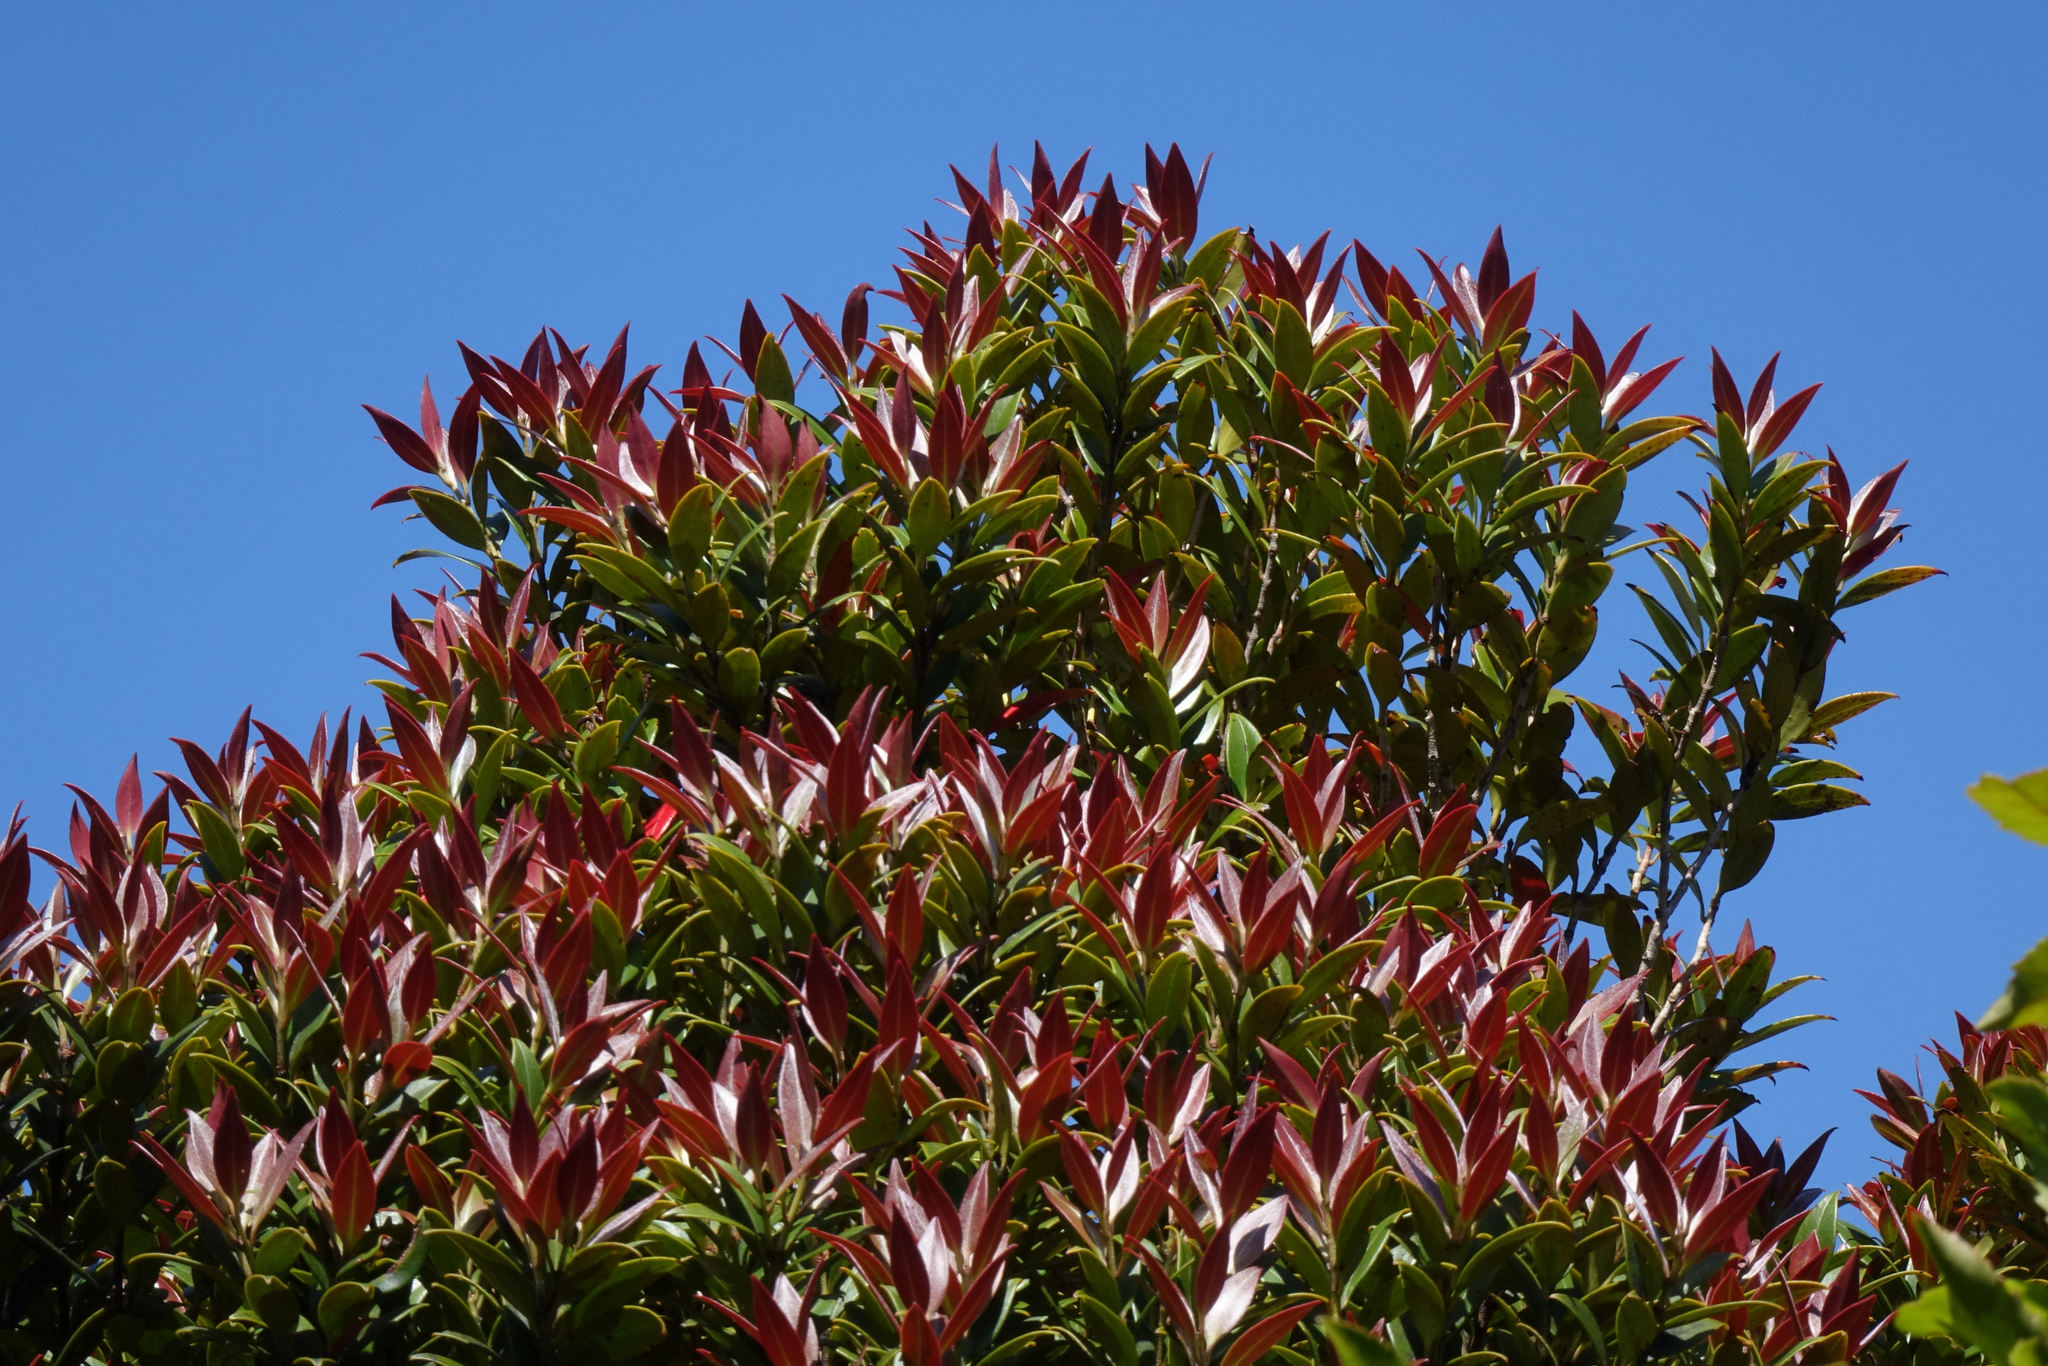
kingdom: Plantae
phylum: Tracheophyta
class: Magnoliopsida
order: Myrtales
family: Myrtaceae
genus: Metrosideros
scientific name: Metrosideros umbellata
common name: Southern rata
